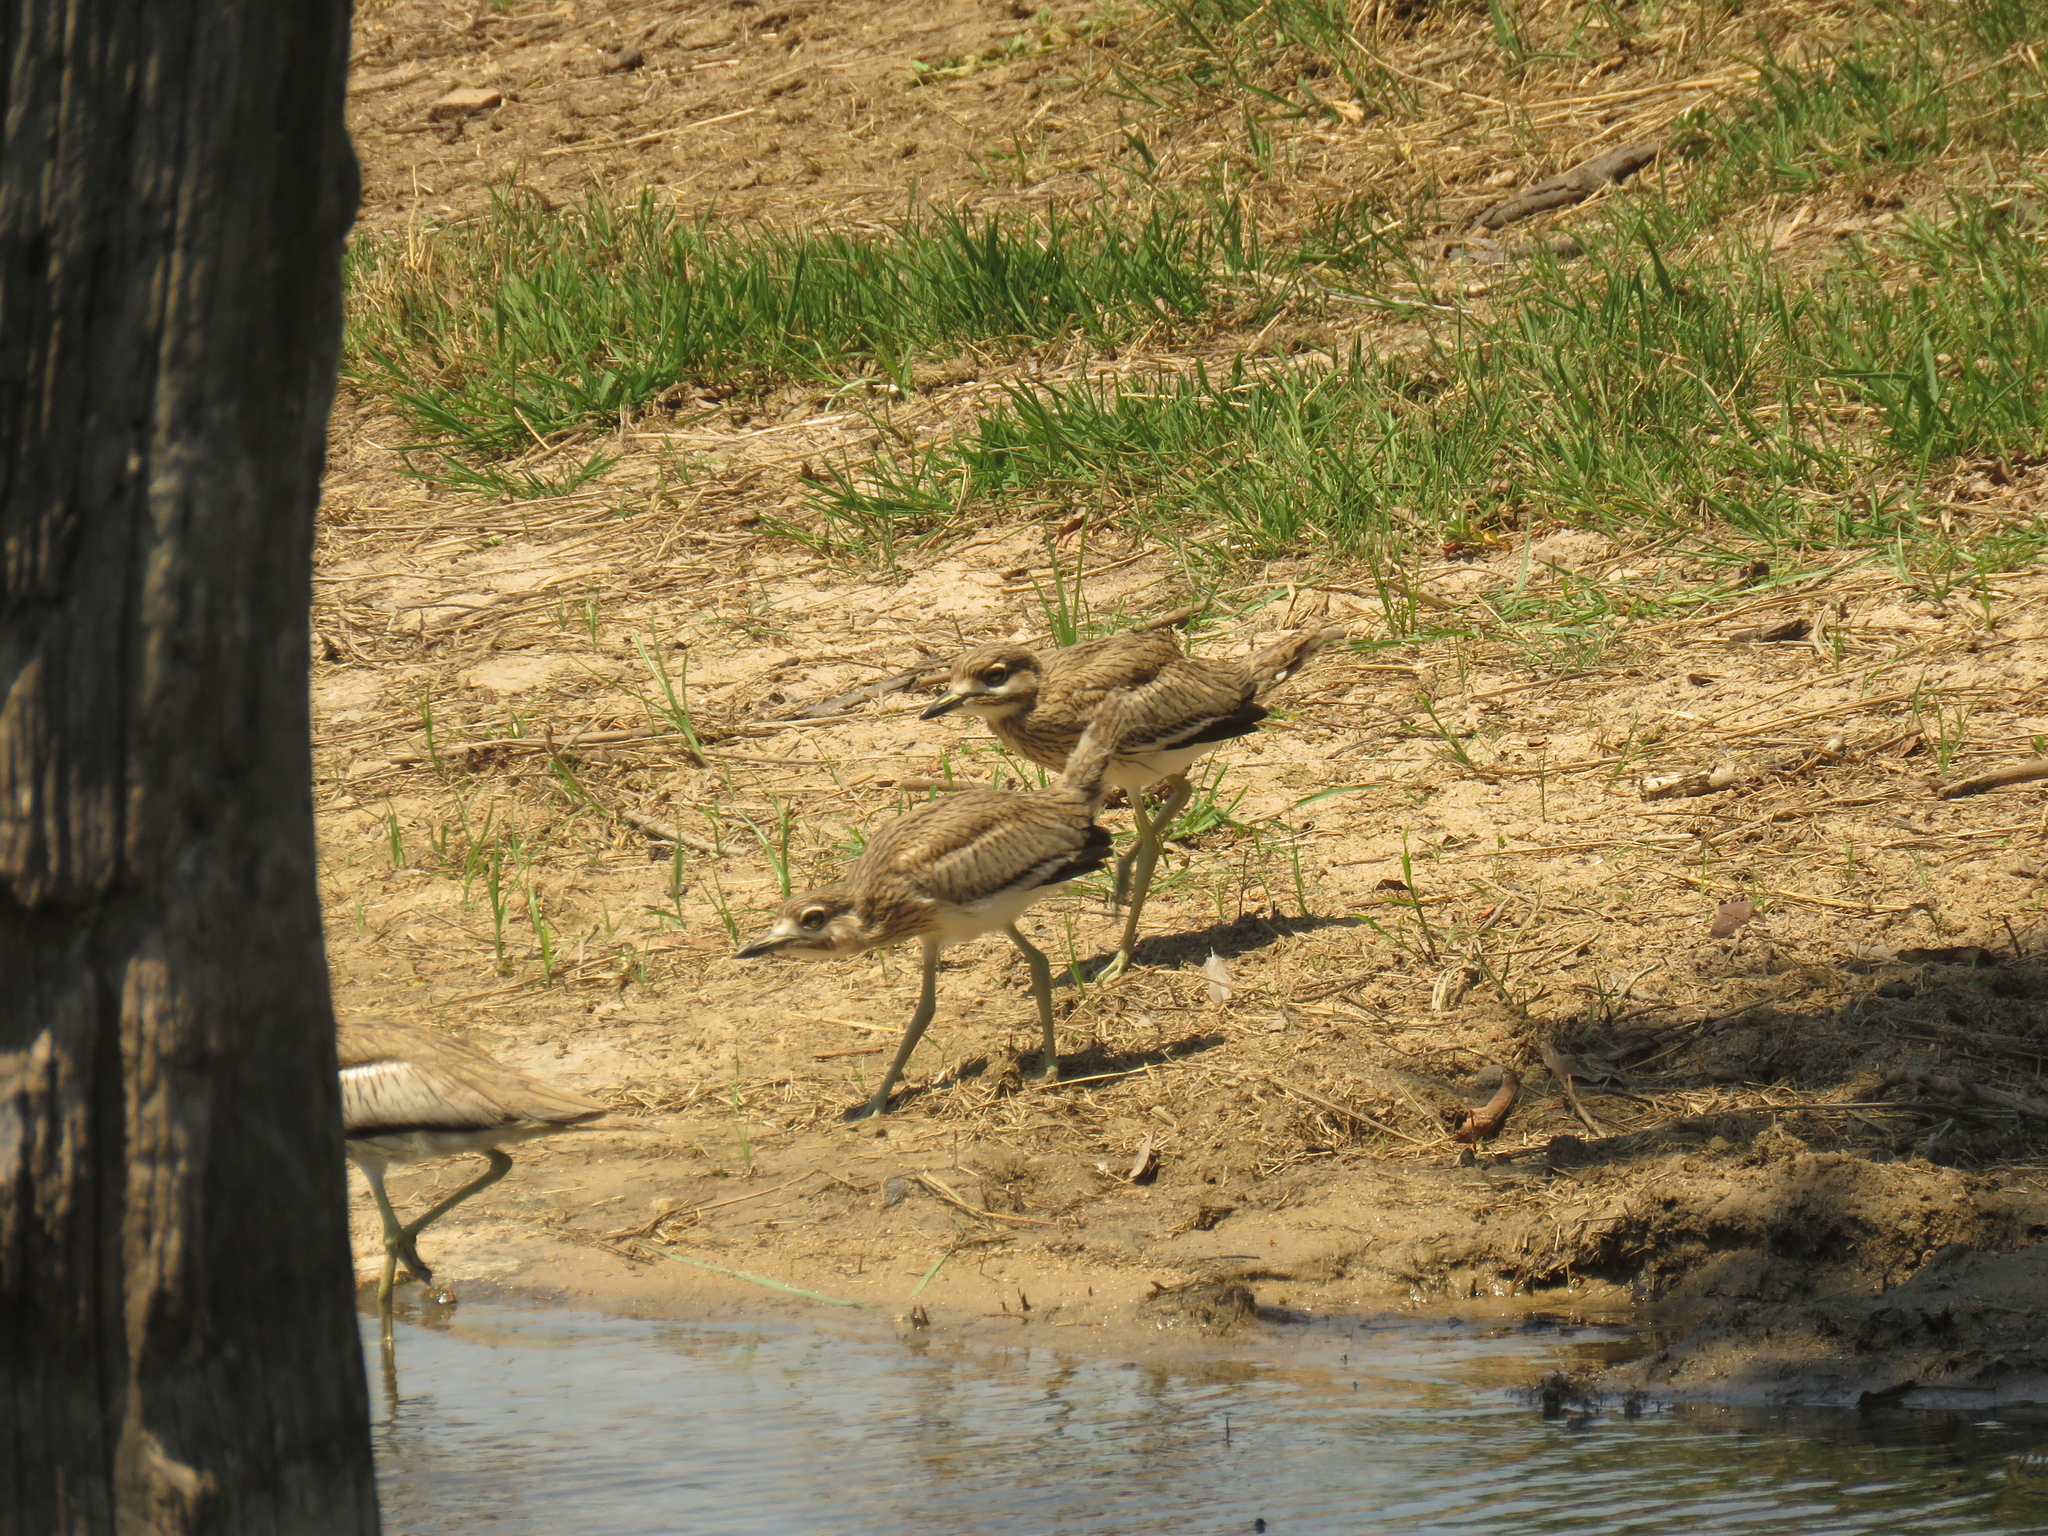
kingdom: Animalia
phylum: Chordata
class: Aves
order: Charadriiformes
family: Burhinidae
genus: Burhinus
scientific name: Burhinus vermiculatus
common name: Water thick-knee
